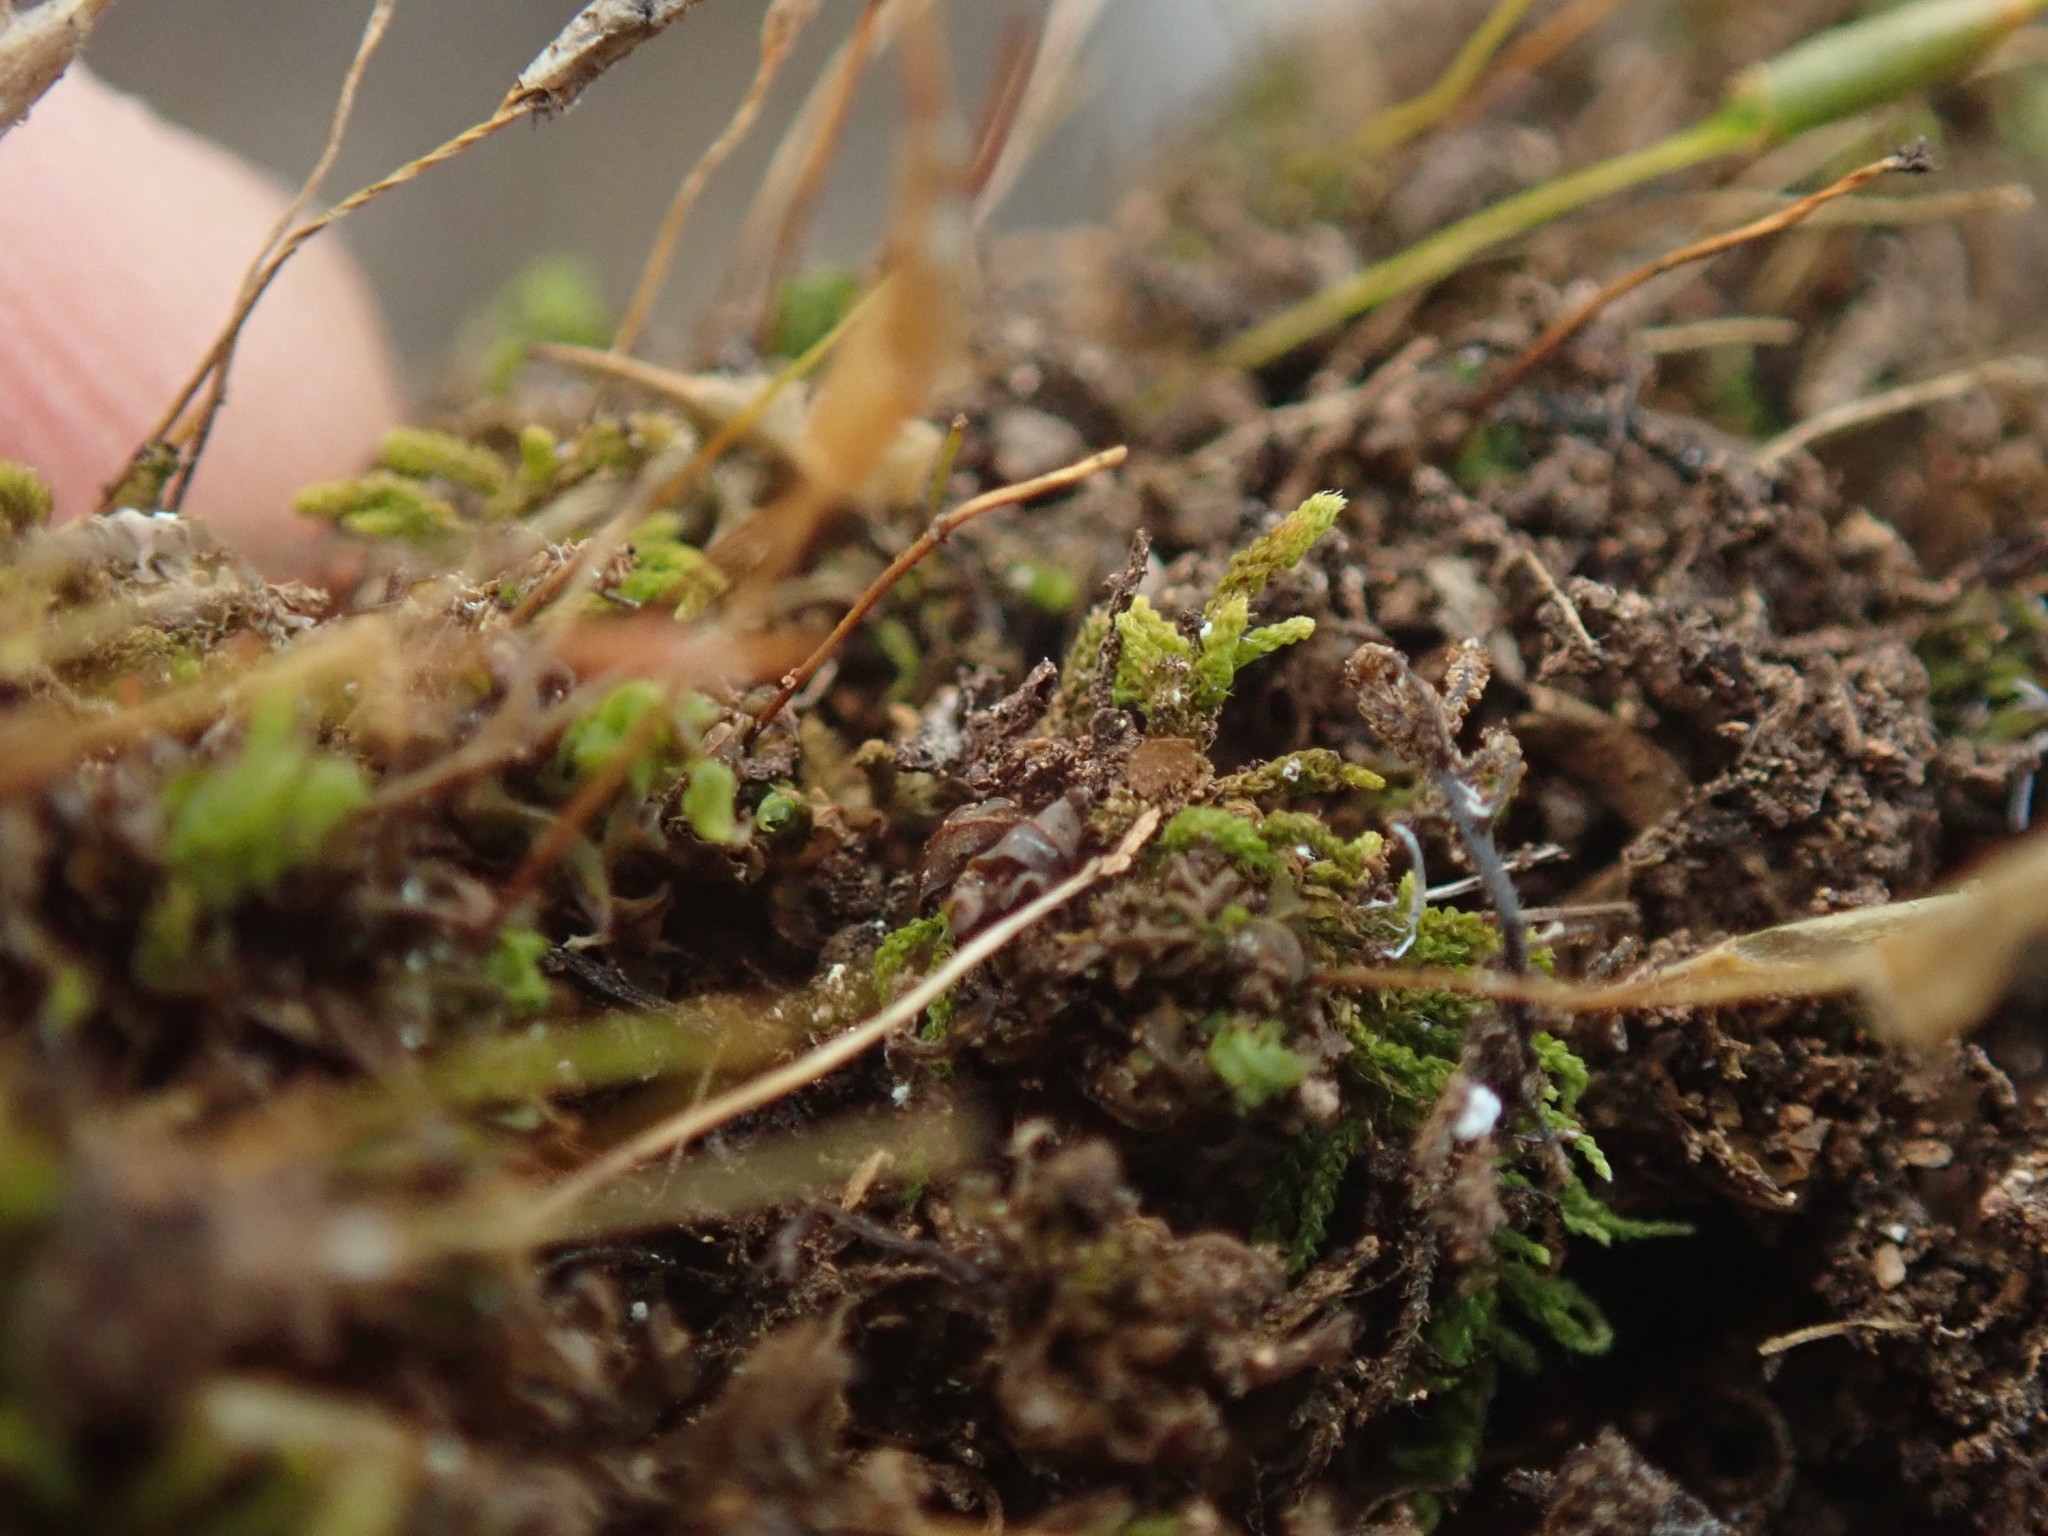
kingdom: Plantae
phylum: Bryophyta
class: Bryopsida
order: Encalyptales
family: Encalyptaceae
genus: Encalypta
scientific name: Encalypta ciliata
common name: Fringed extinguisher-moss
